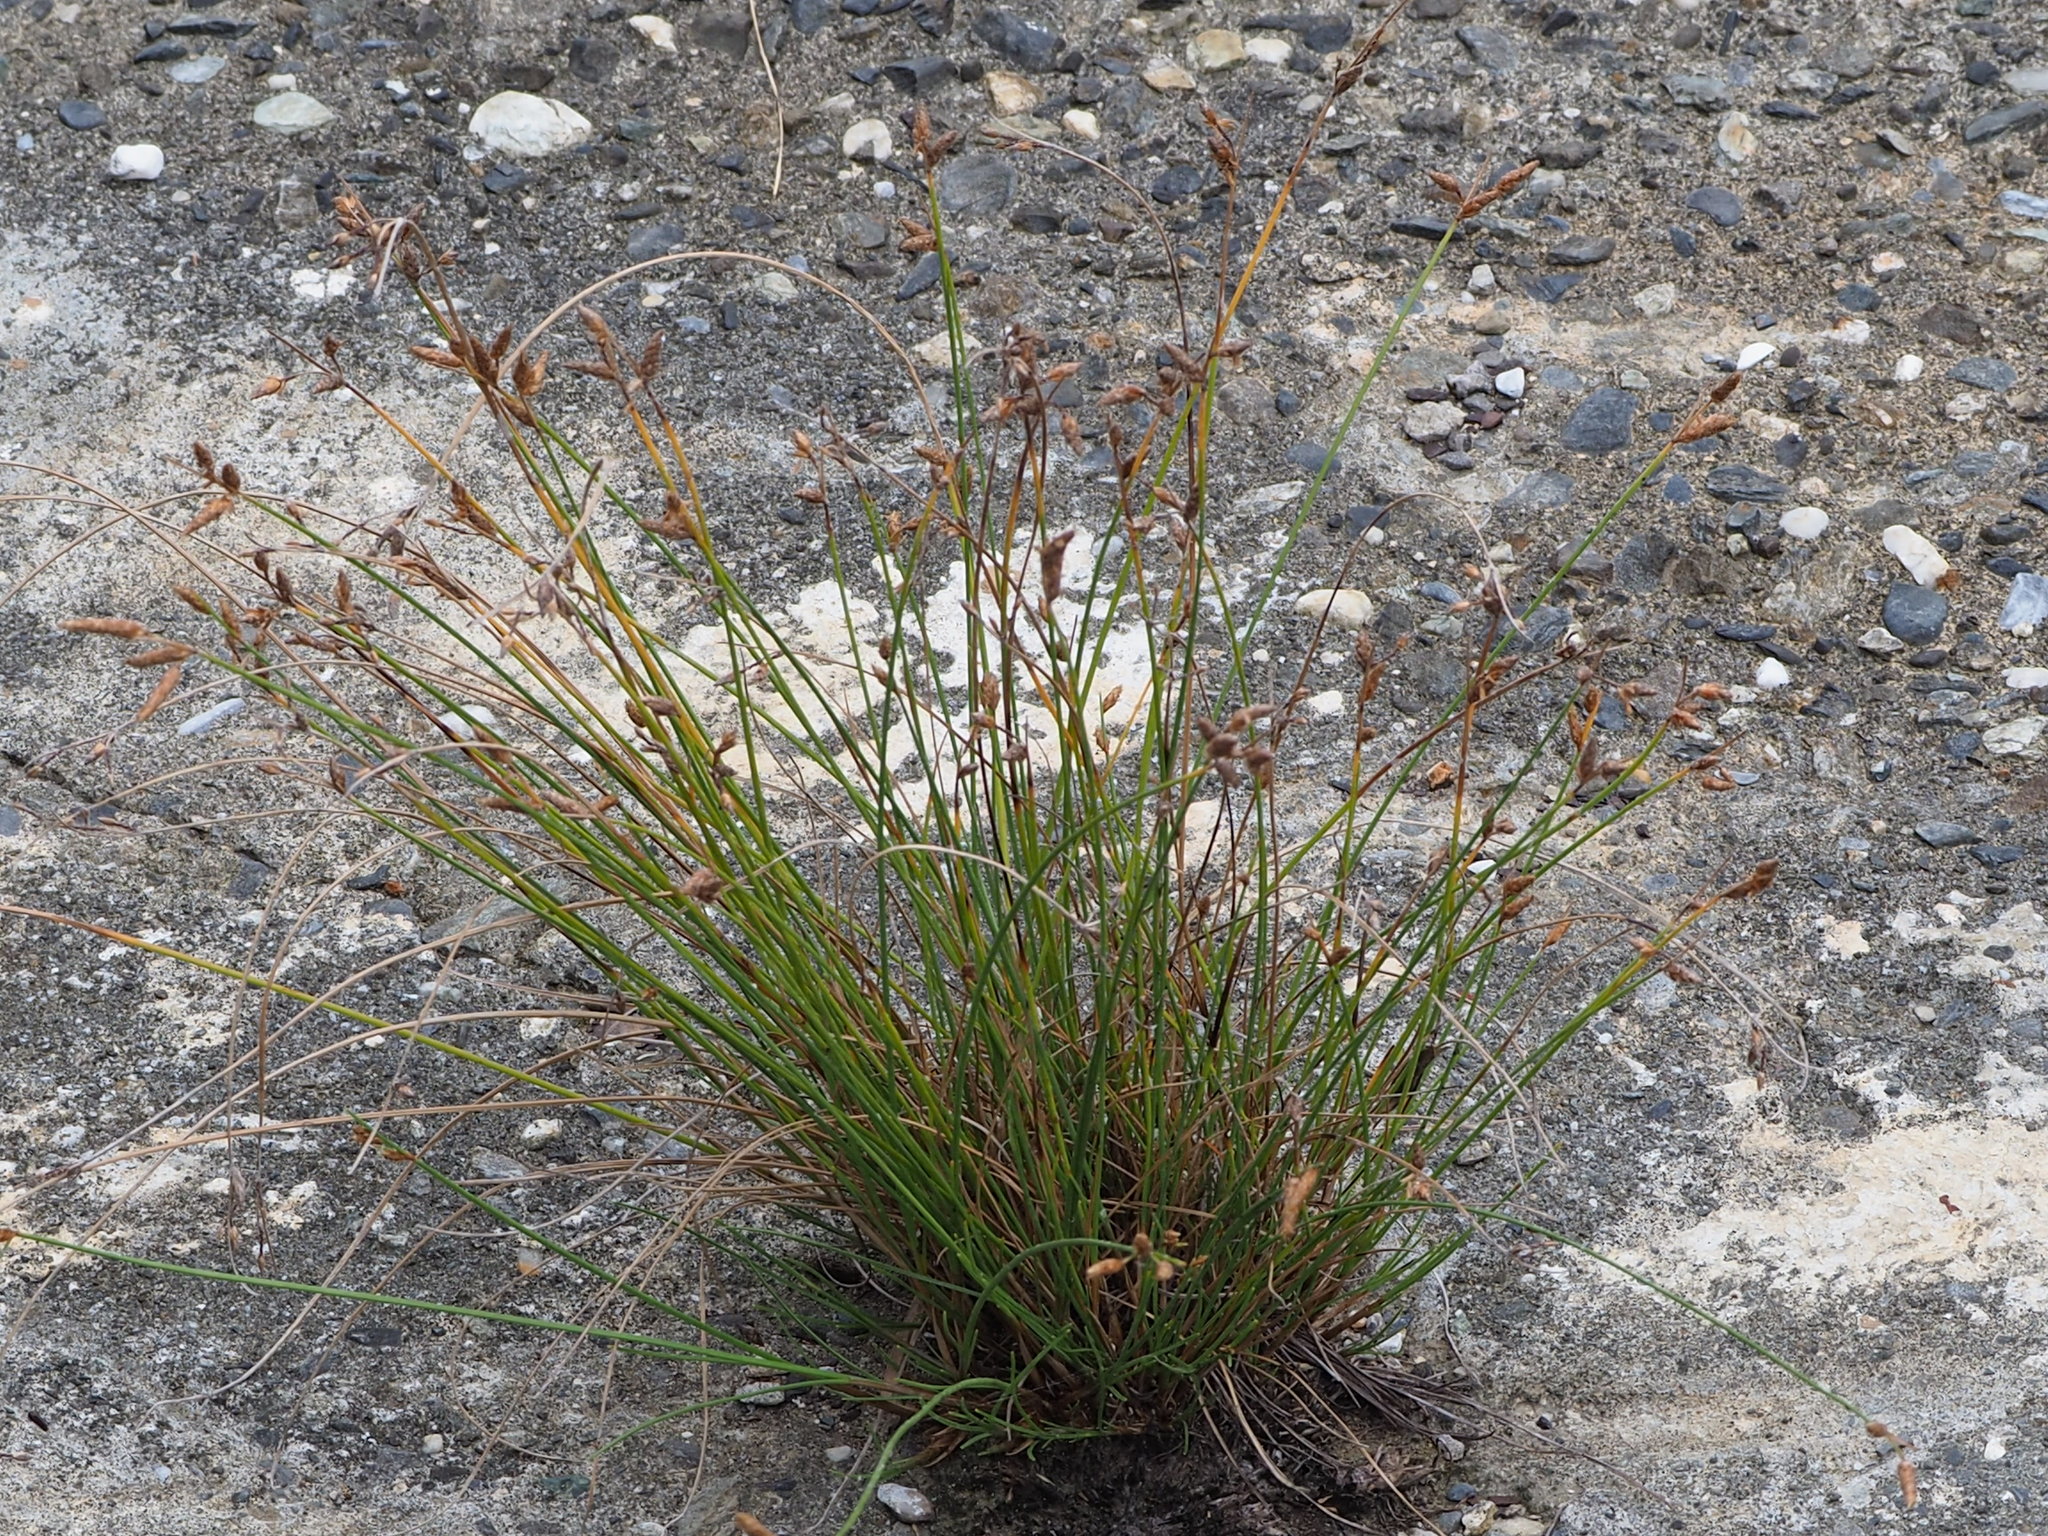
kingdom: Plantae
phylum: Tracheophyta
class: Liliopsida
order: Poales
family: Cyperaceae
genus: Fimbristylis
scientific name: Fimbristylis sieboldii
